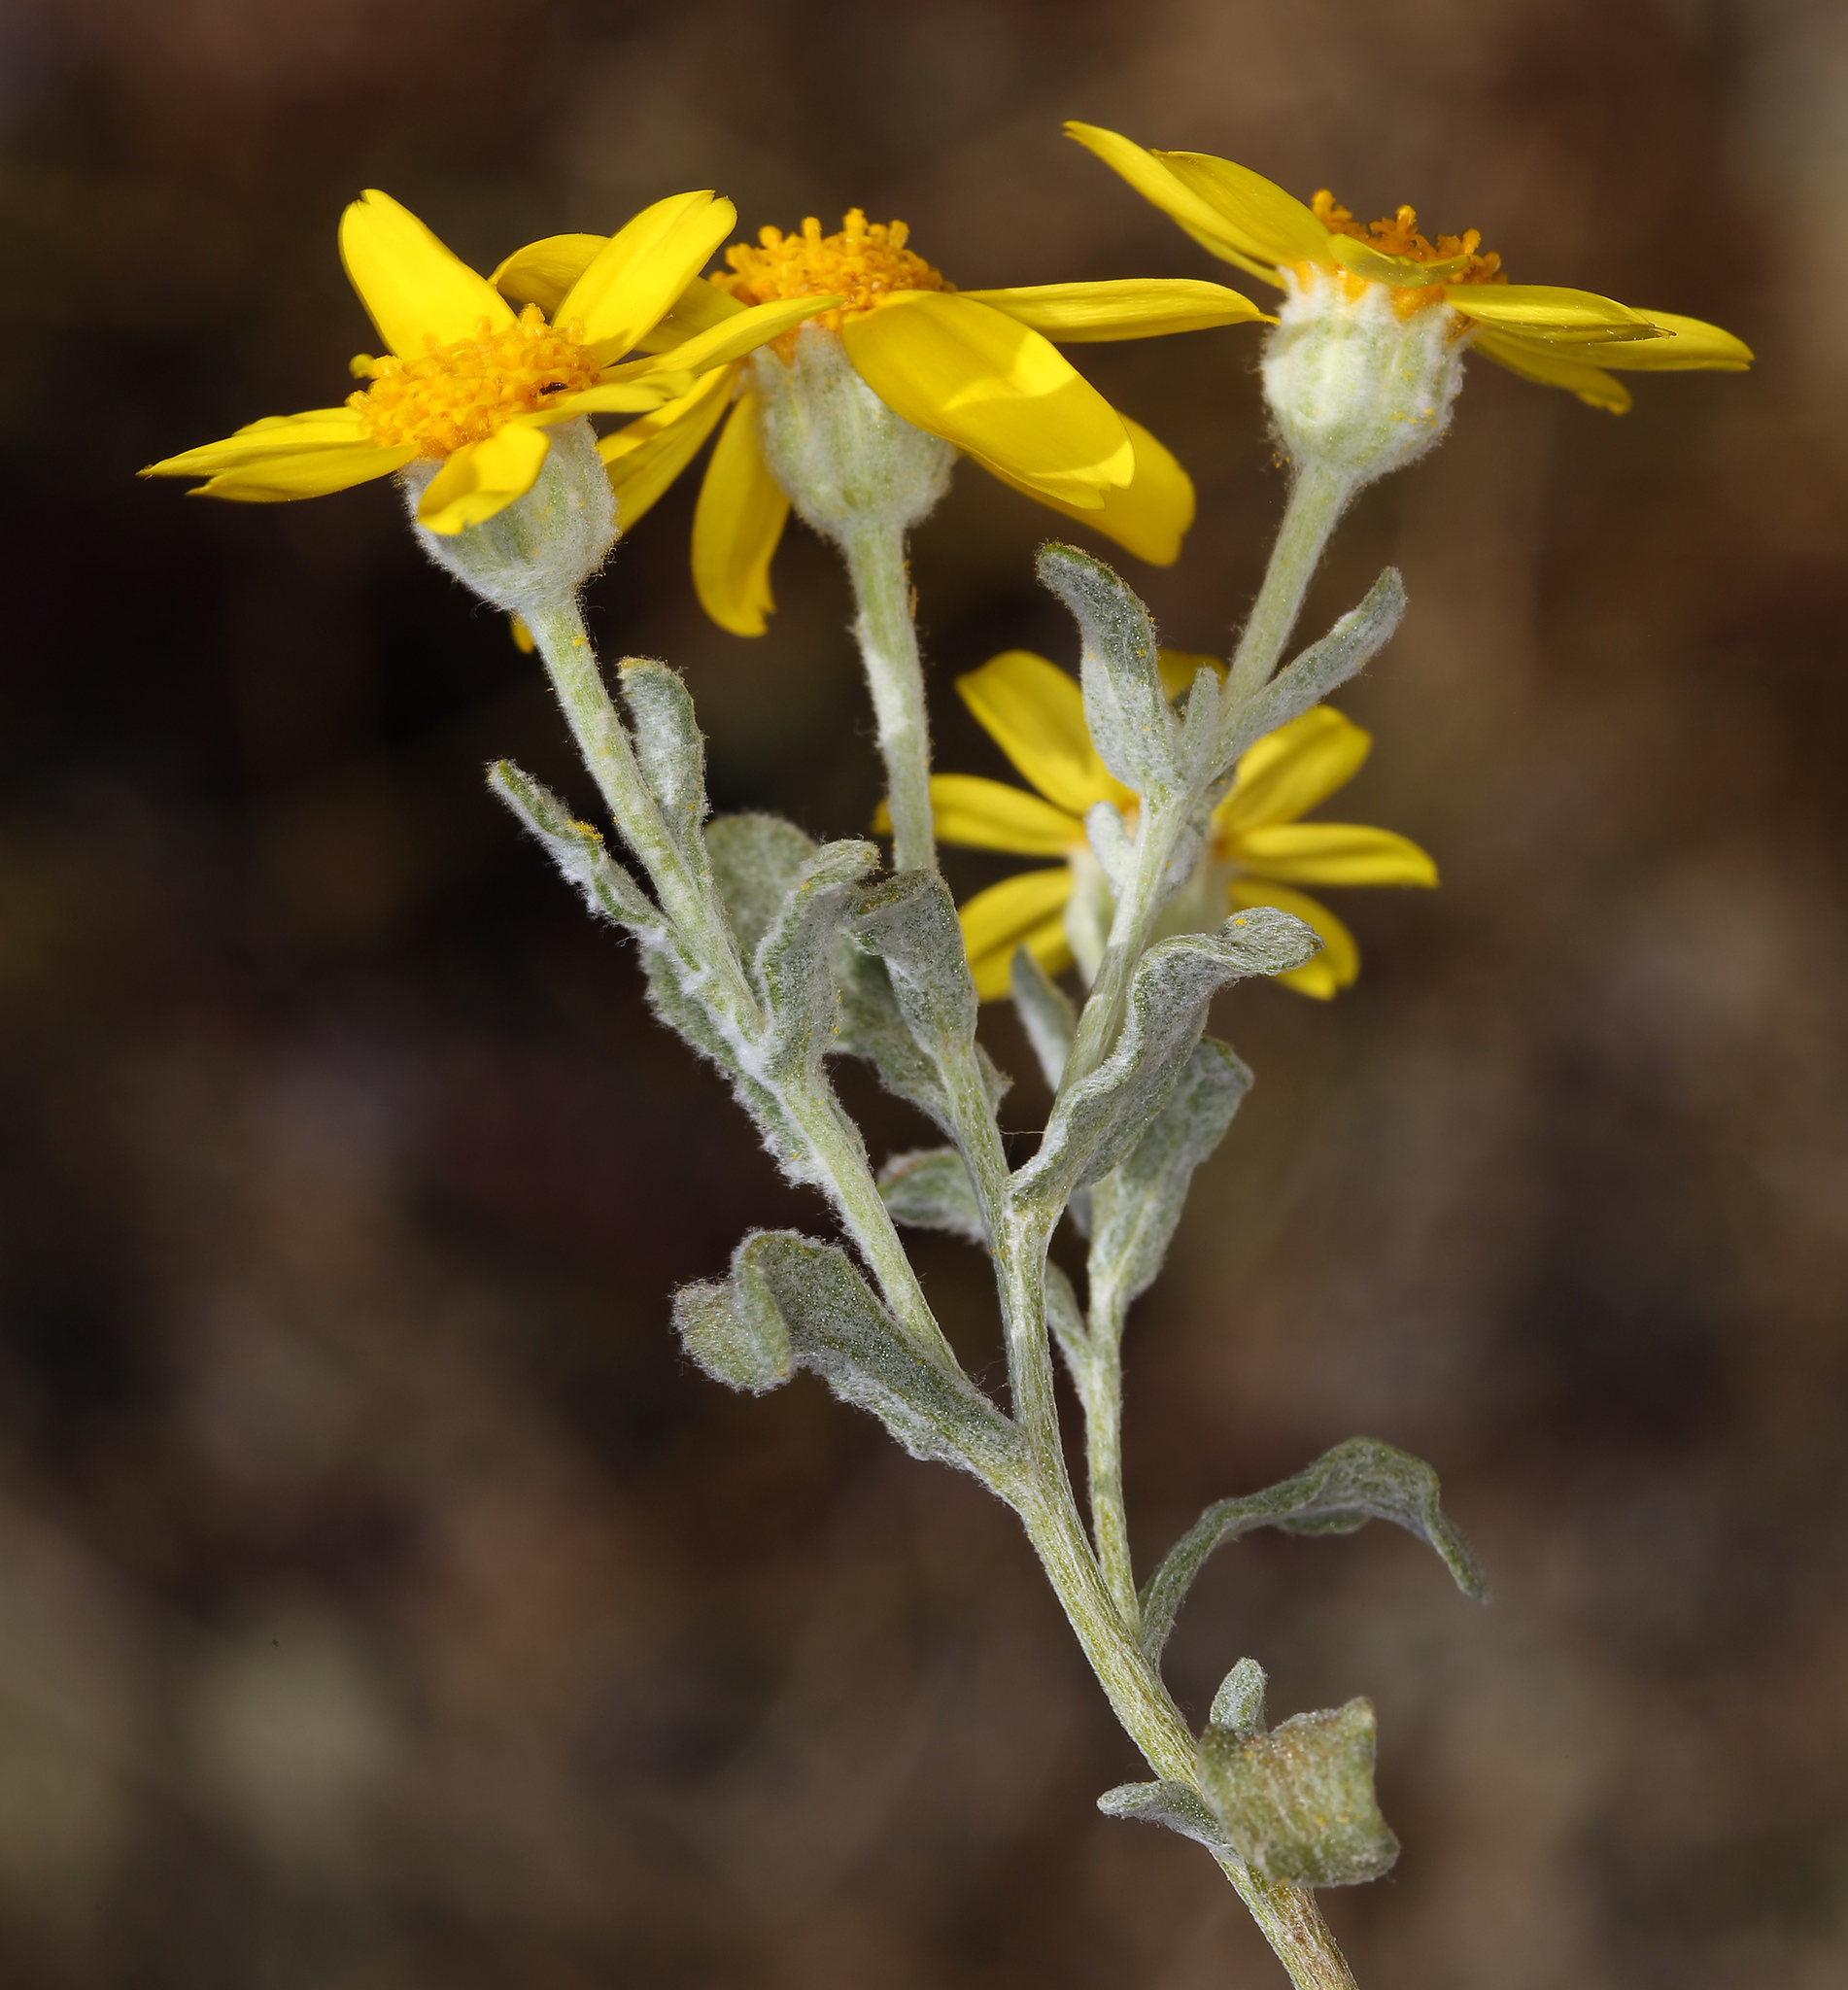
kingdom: Plantae
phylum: Tracheophyta
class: Magnoliopsida
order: Asterales
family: Asteraceae
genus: Eriophyllum
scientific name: Eriophyllum lanatum
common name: Common woolly-sunflower
